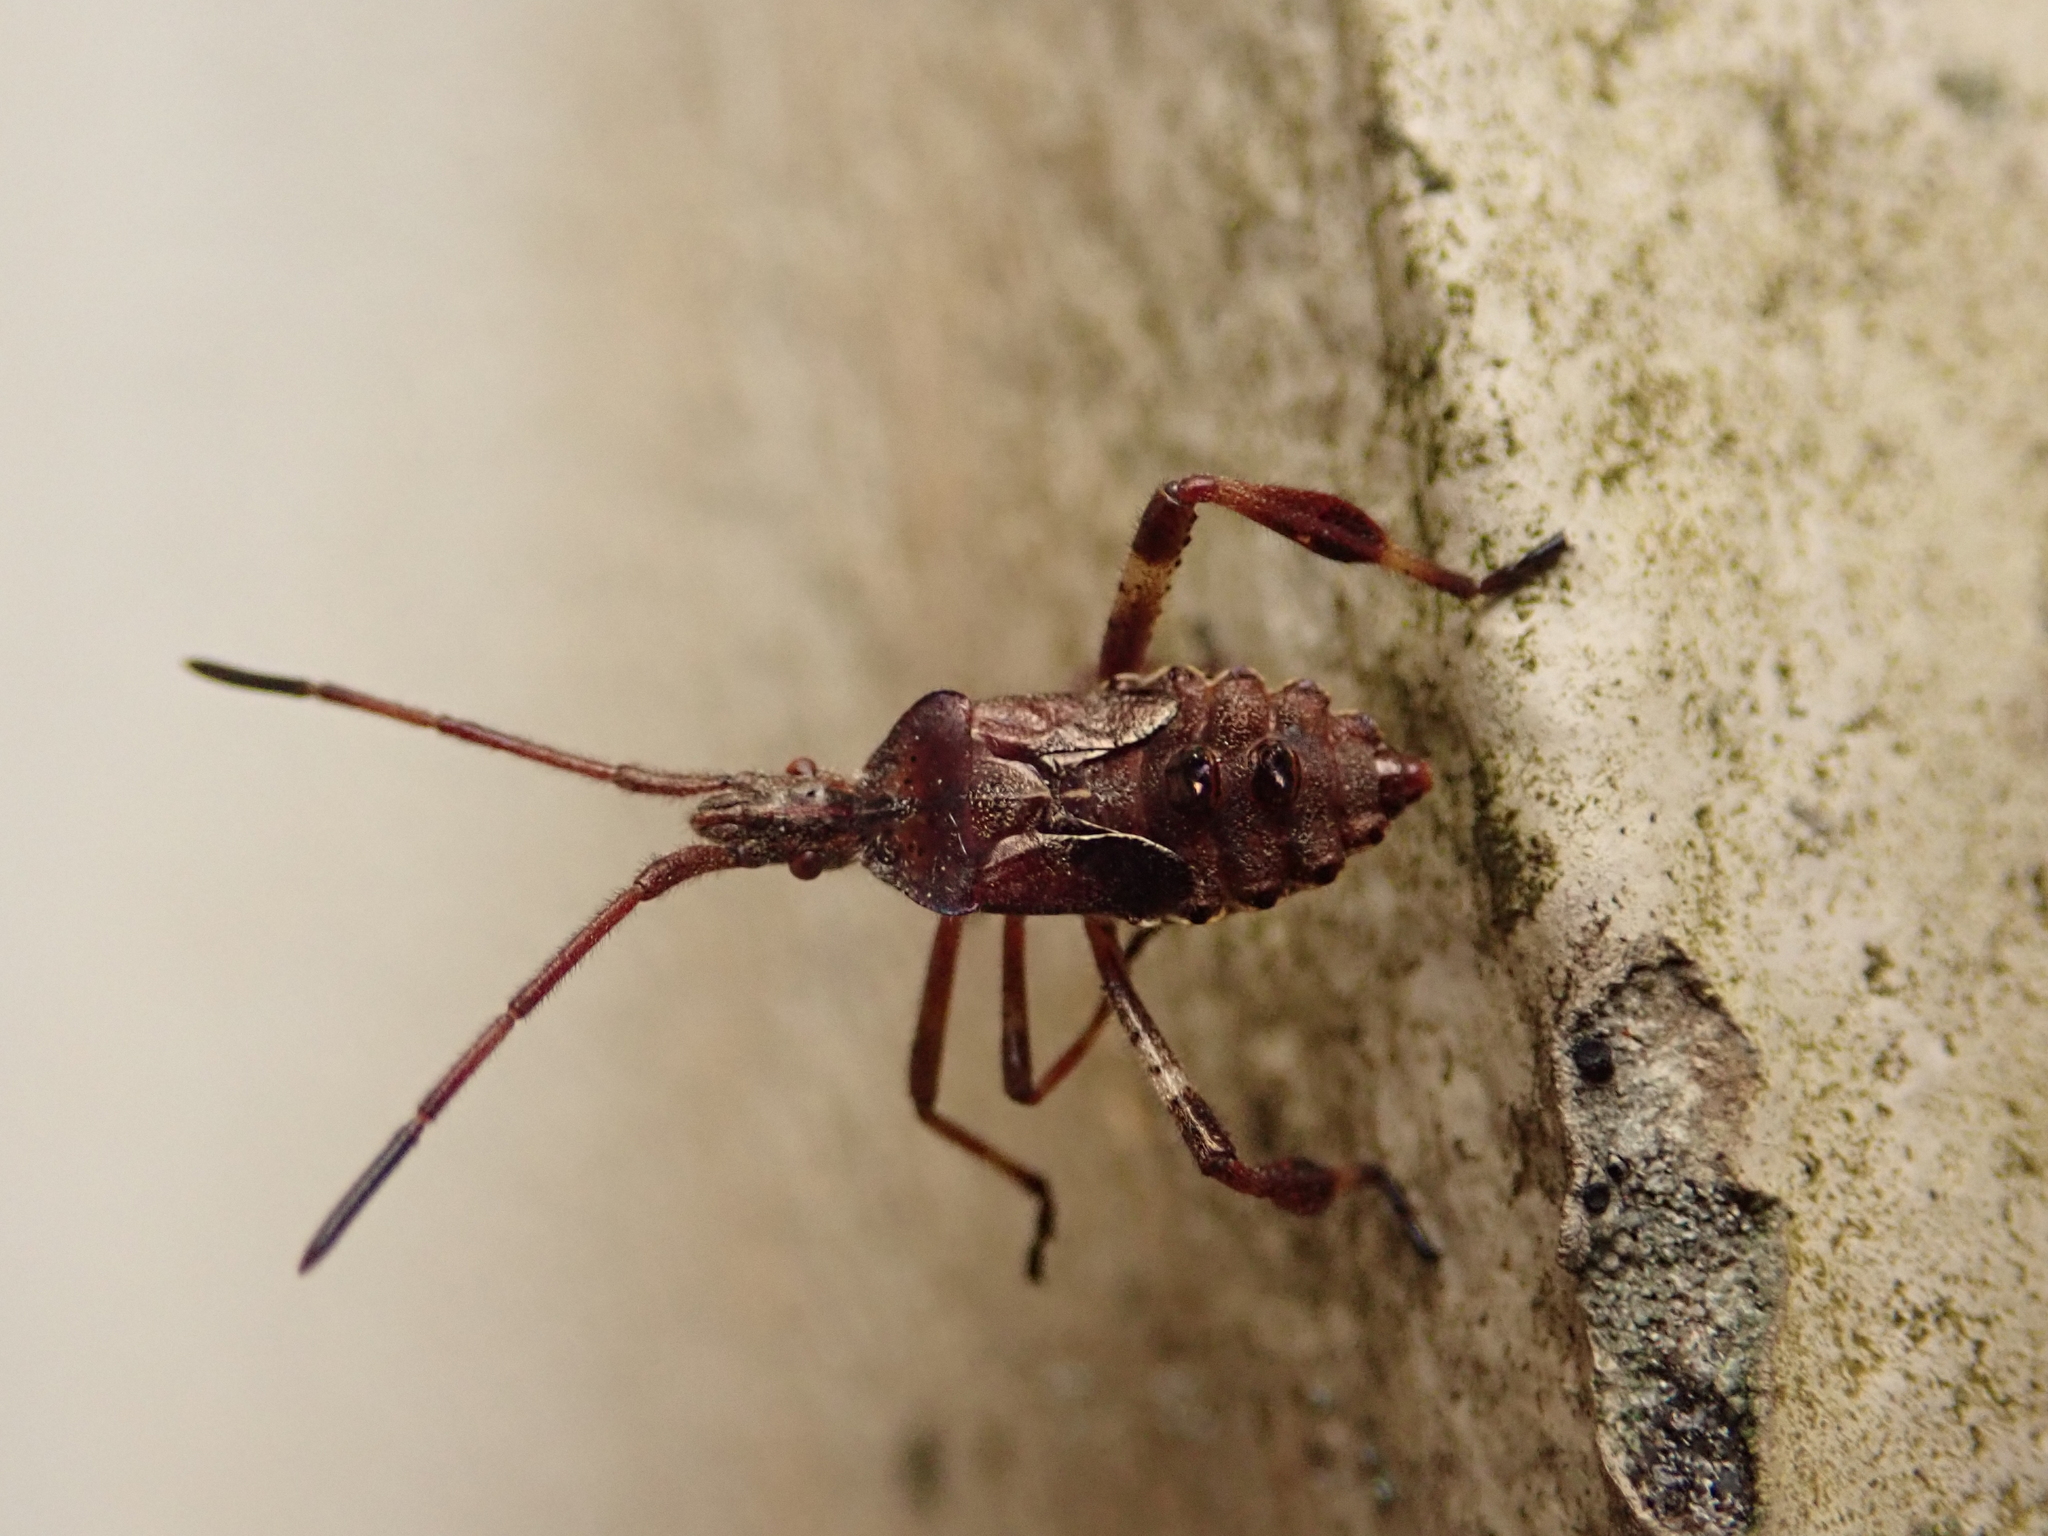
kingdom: Animalia
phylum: Arthropoda
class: Insecta
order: Hemiptera
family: Coreidae
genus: Leptoglossus
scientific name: Leptoglossus occidentalis
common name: Western conifer-seed bug
